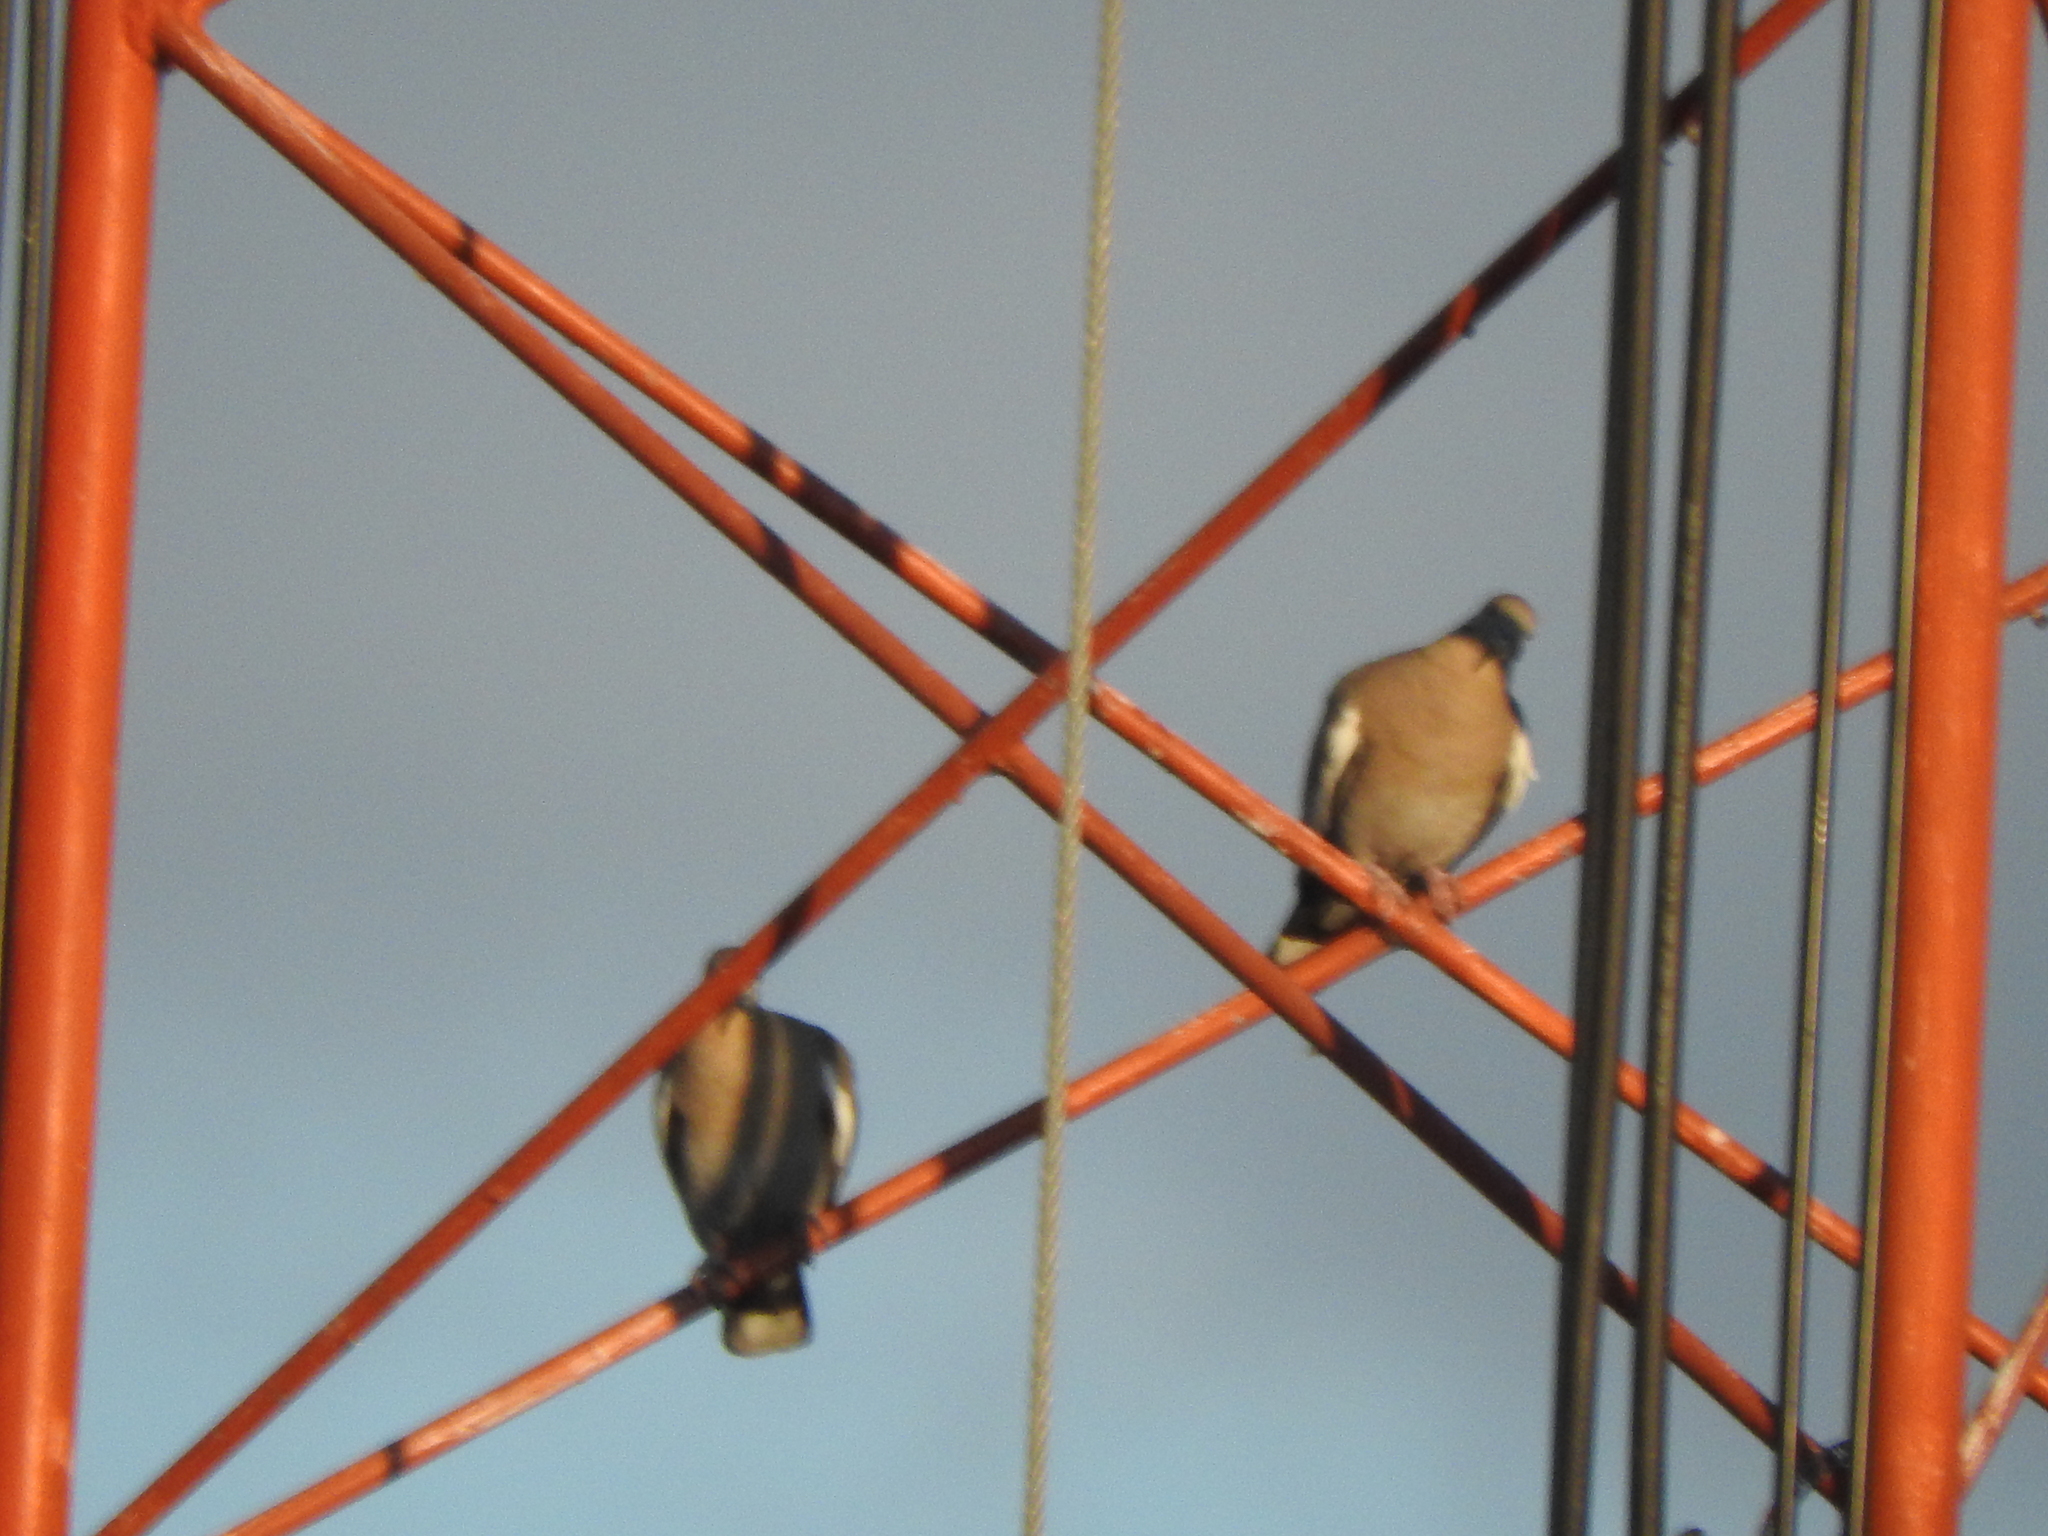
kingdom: Animalia
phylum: Chordata
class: Aves
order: Columbiformes
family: Columbidae
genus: Zenaida
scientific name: Zenaida asiatica
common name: White-winged dove
